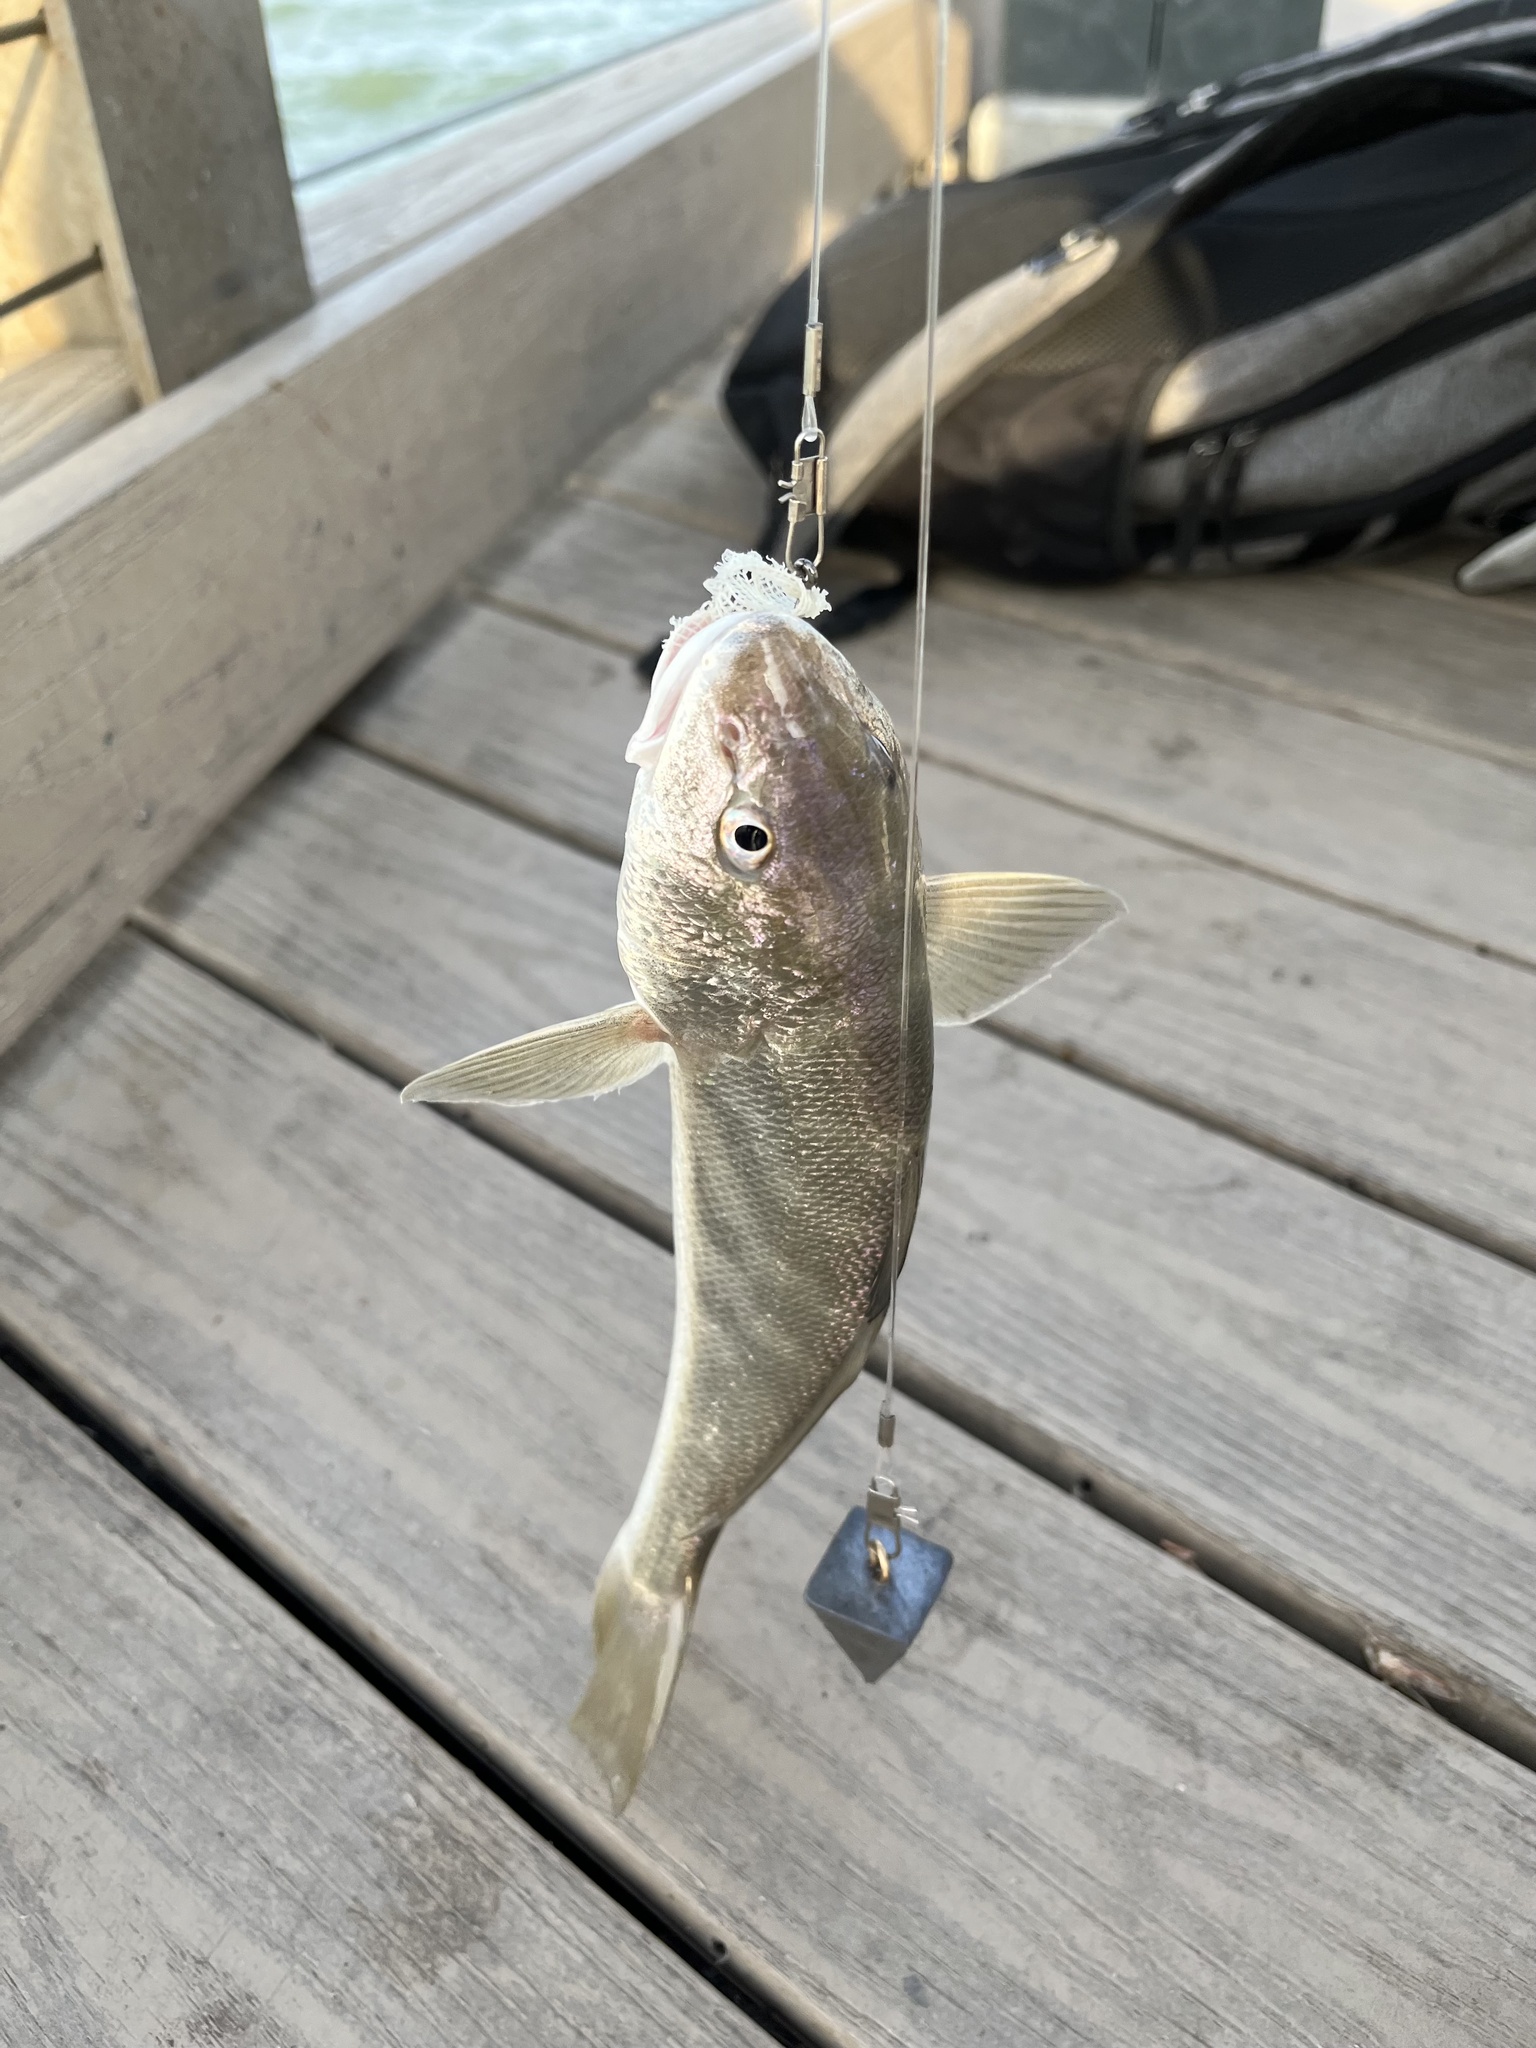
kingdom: Animalia
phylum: Chordata
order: Perciformes
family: Sciaenidae
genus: Menticirrhus
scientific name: Menticirrhus americanus
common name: Southern kingfish
